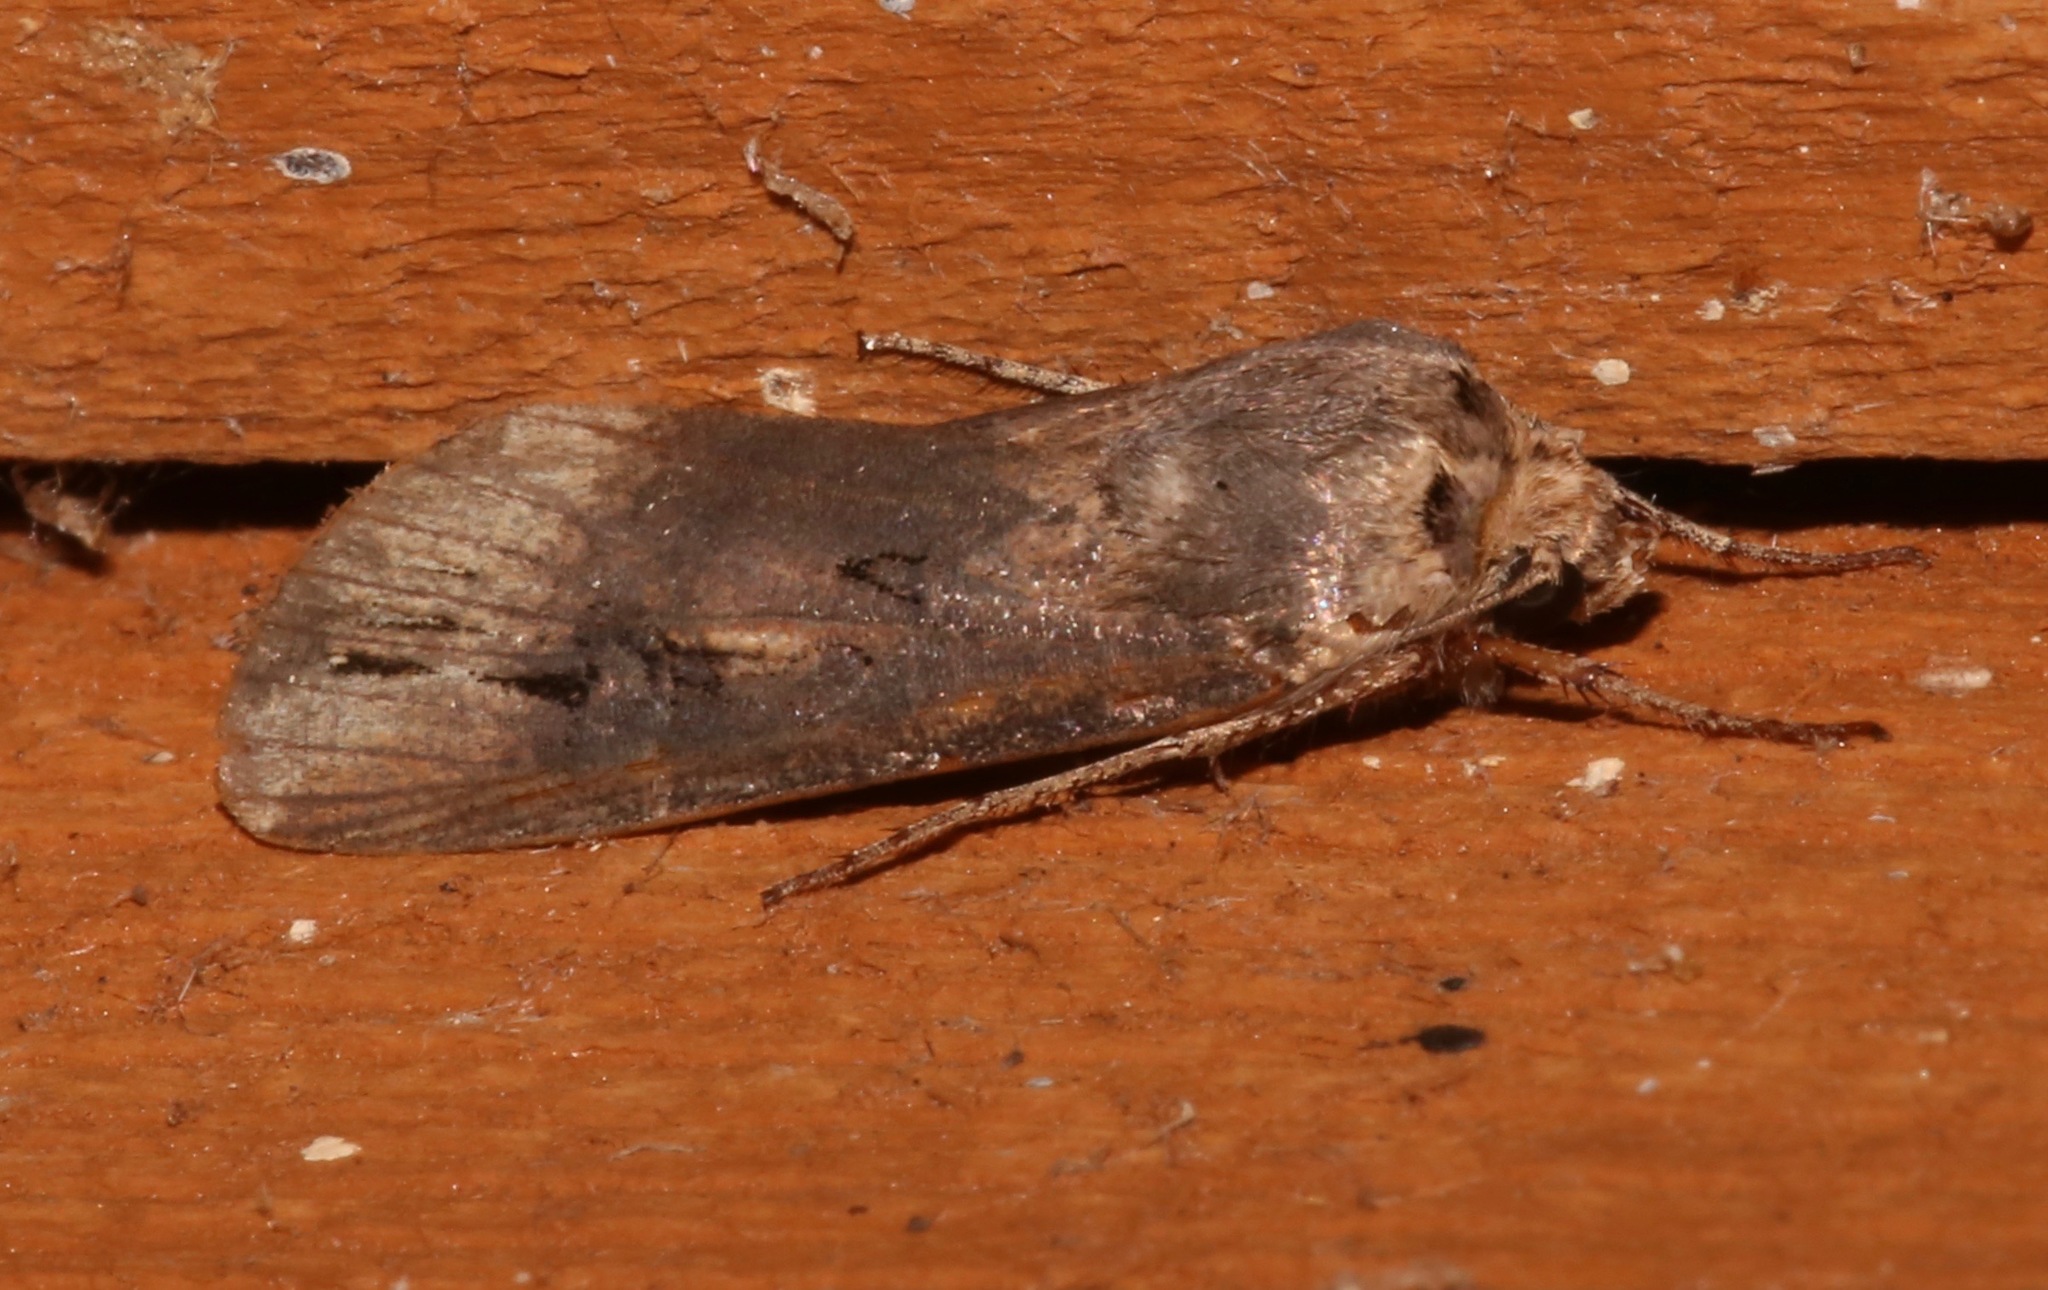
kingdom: Animalia
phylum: Arthropoda
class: Insecta
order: Lepidoptera
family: Noctuidae
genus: Agrotis
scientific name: Agrotis ipsilon
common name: Dark sword-grass
